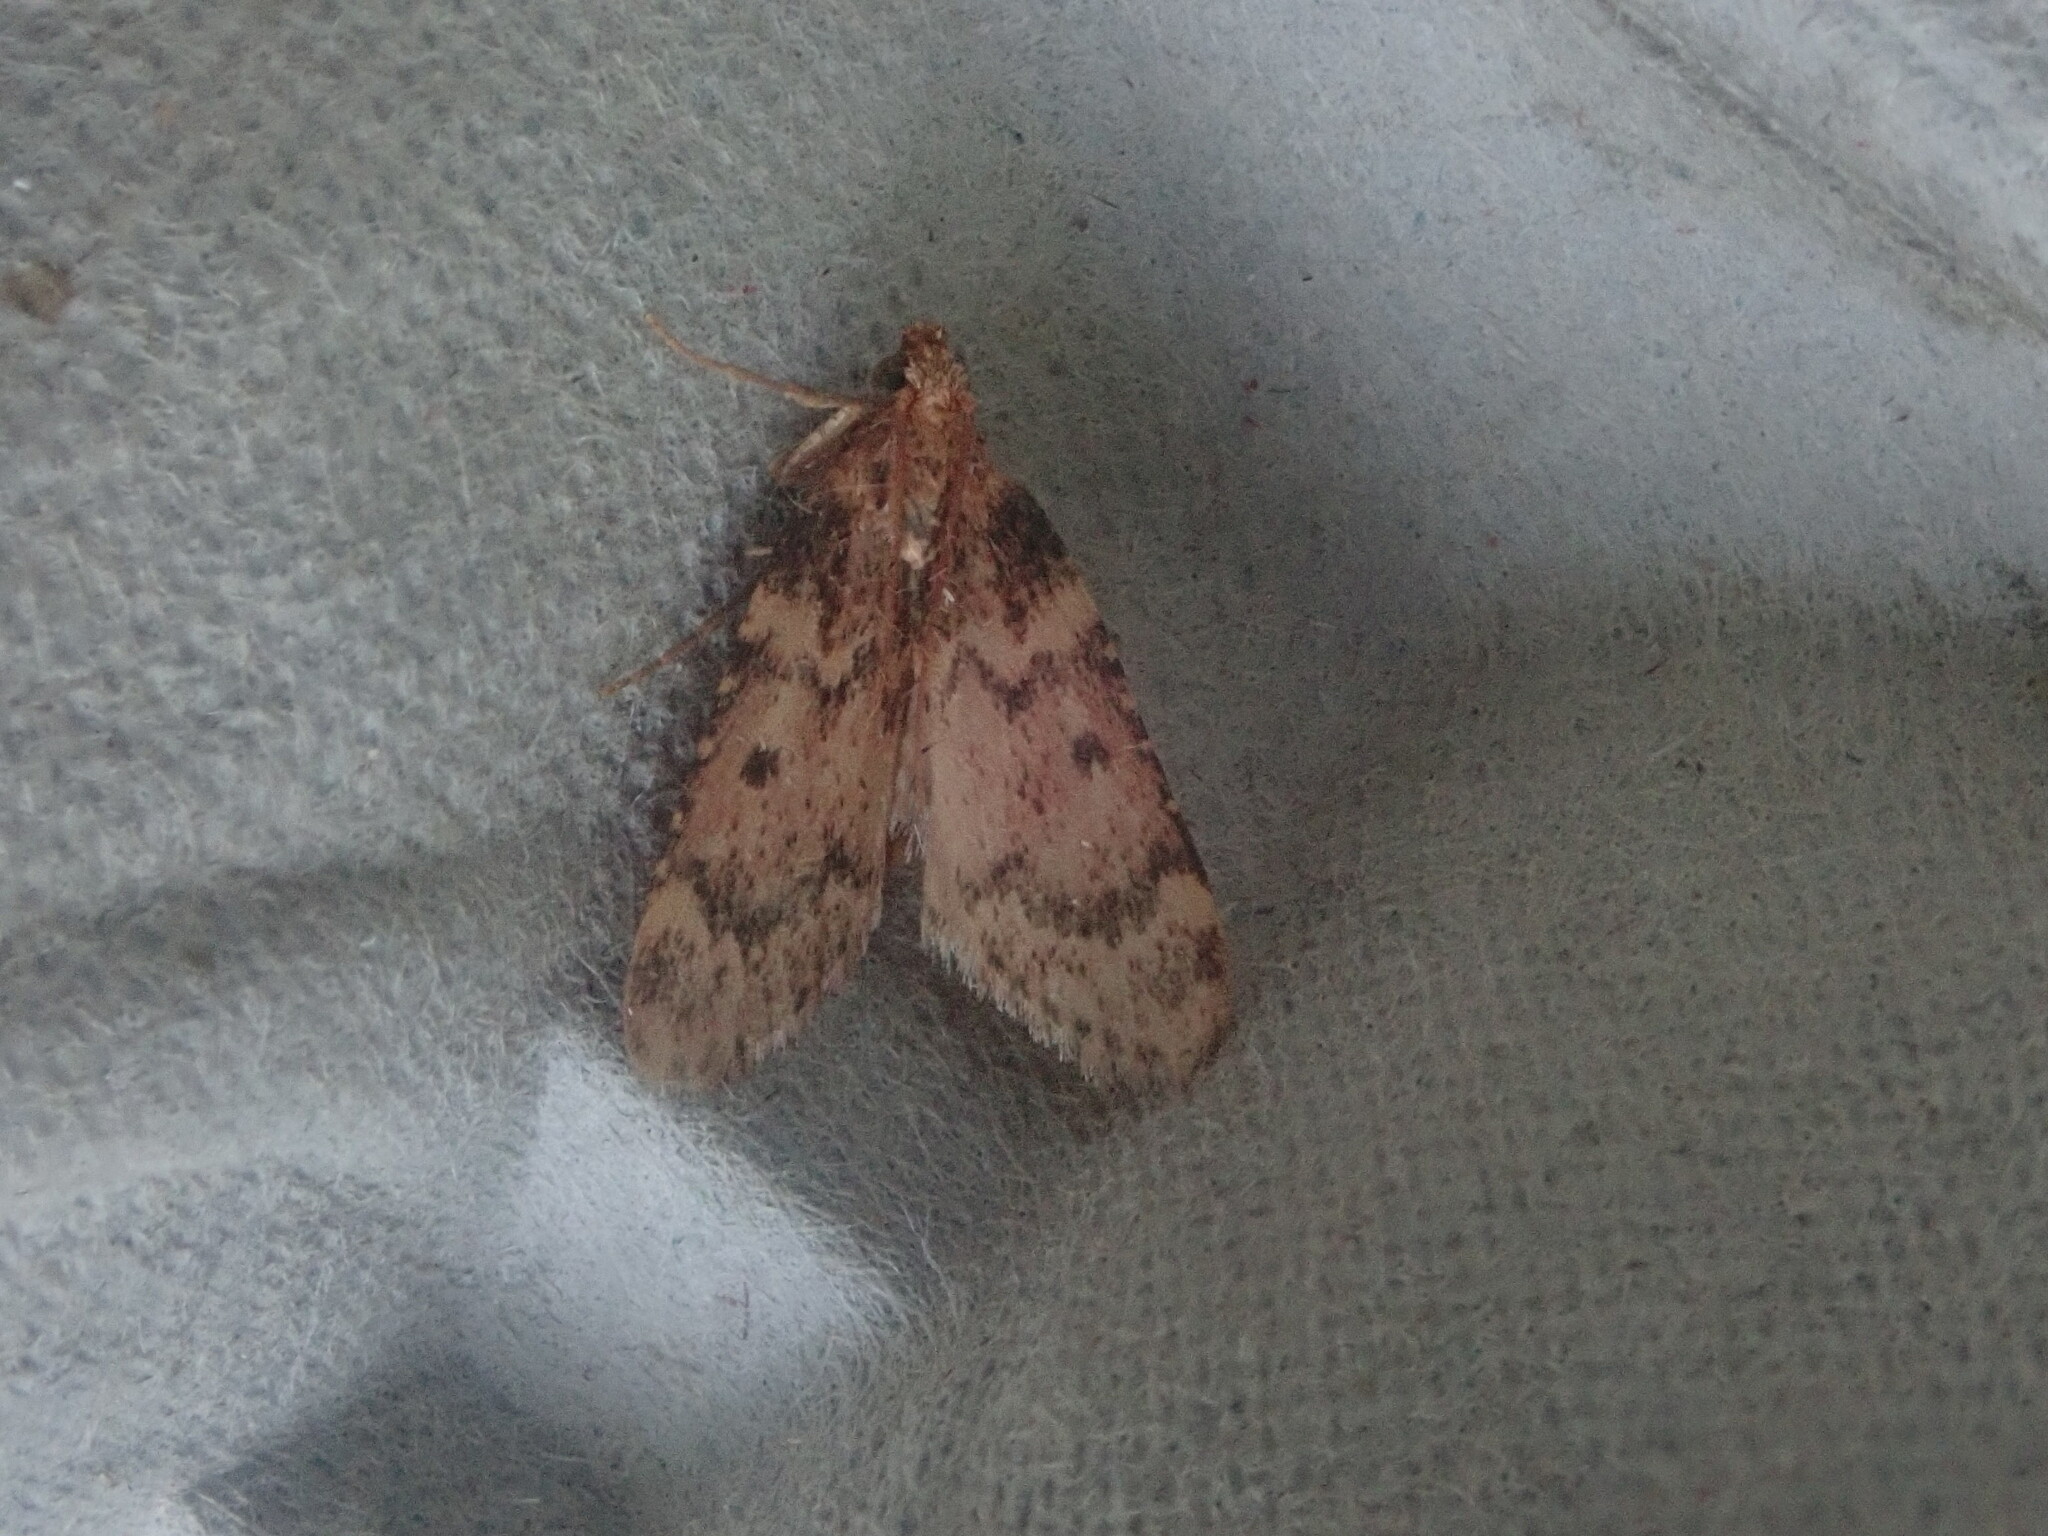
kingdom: Animalia
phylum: Arthropoda
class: Insecta
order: Lepidoptera
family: Pyralidae
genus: Aglossa
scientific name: Aglossa disciferalis
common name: Pink-masked pyralid moth
